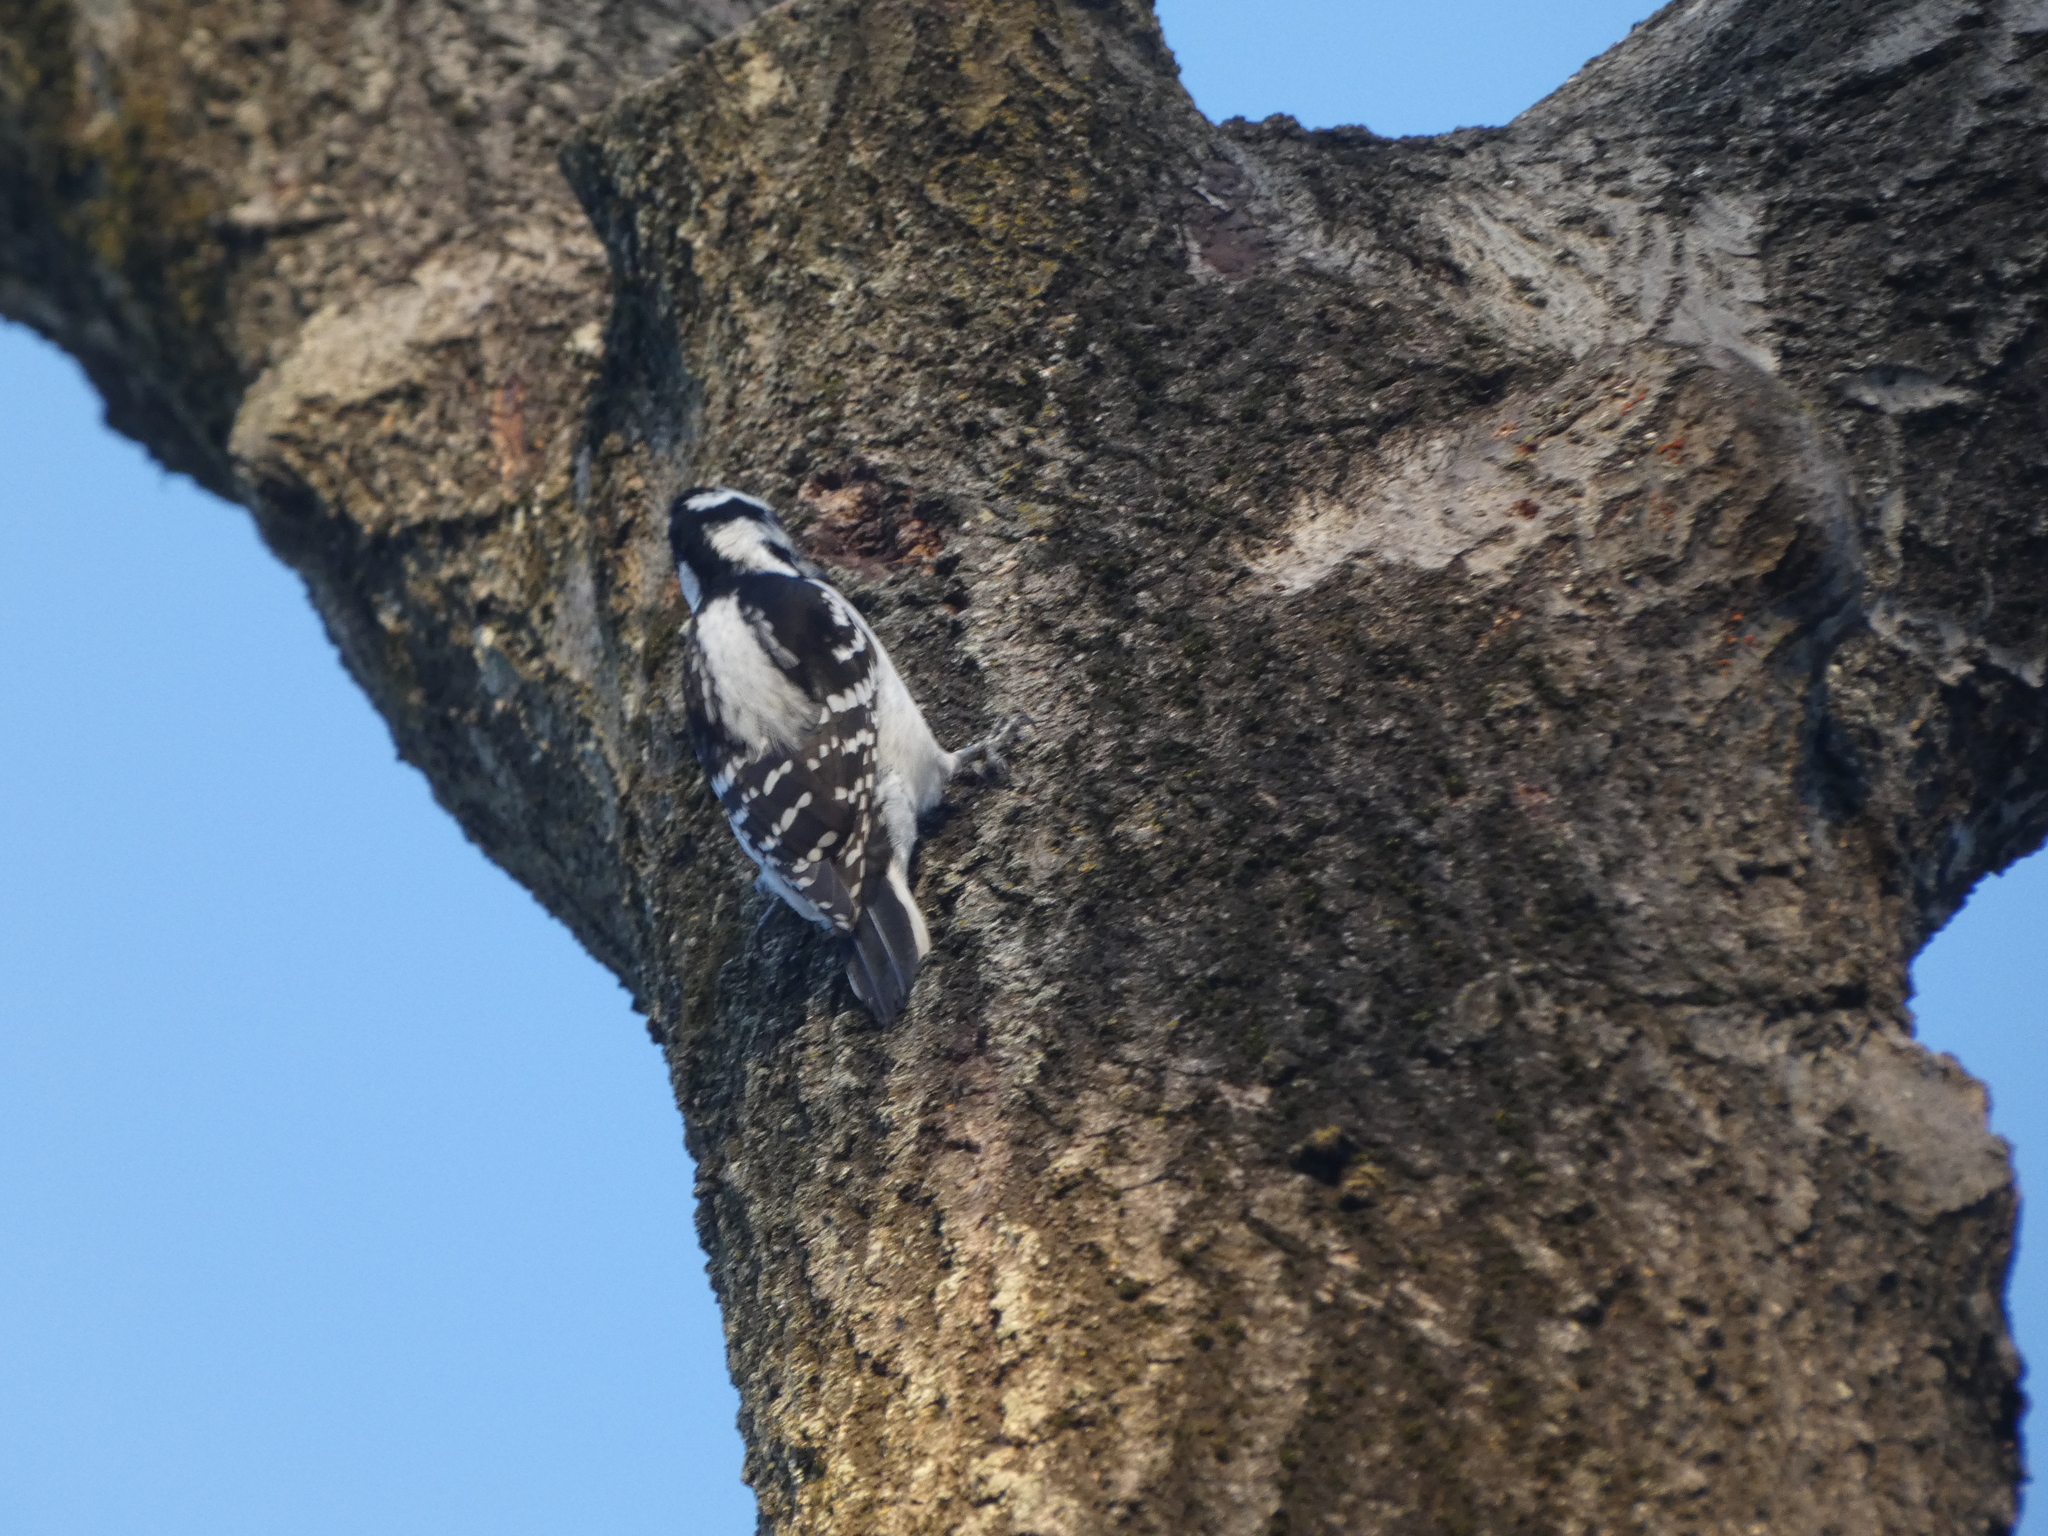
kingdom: Animalia
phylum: Chordata
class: Aves
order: Piciformes
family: Picidae
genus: Leuconotopicus
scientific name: Leuconotopicus villosus
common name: Hairy woodpecker
